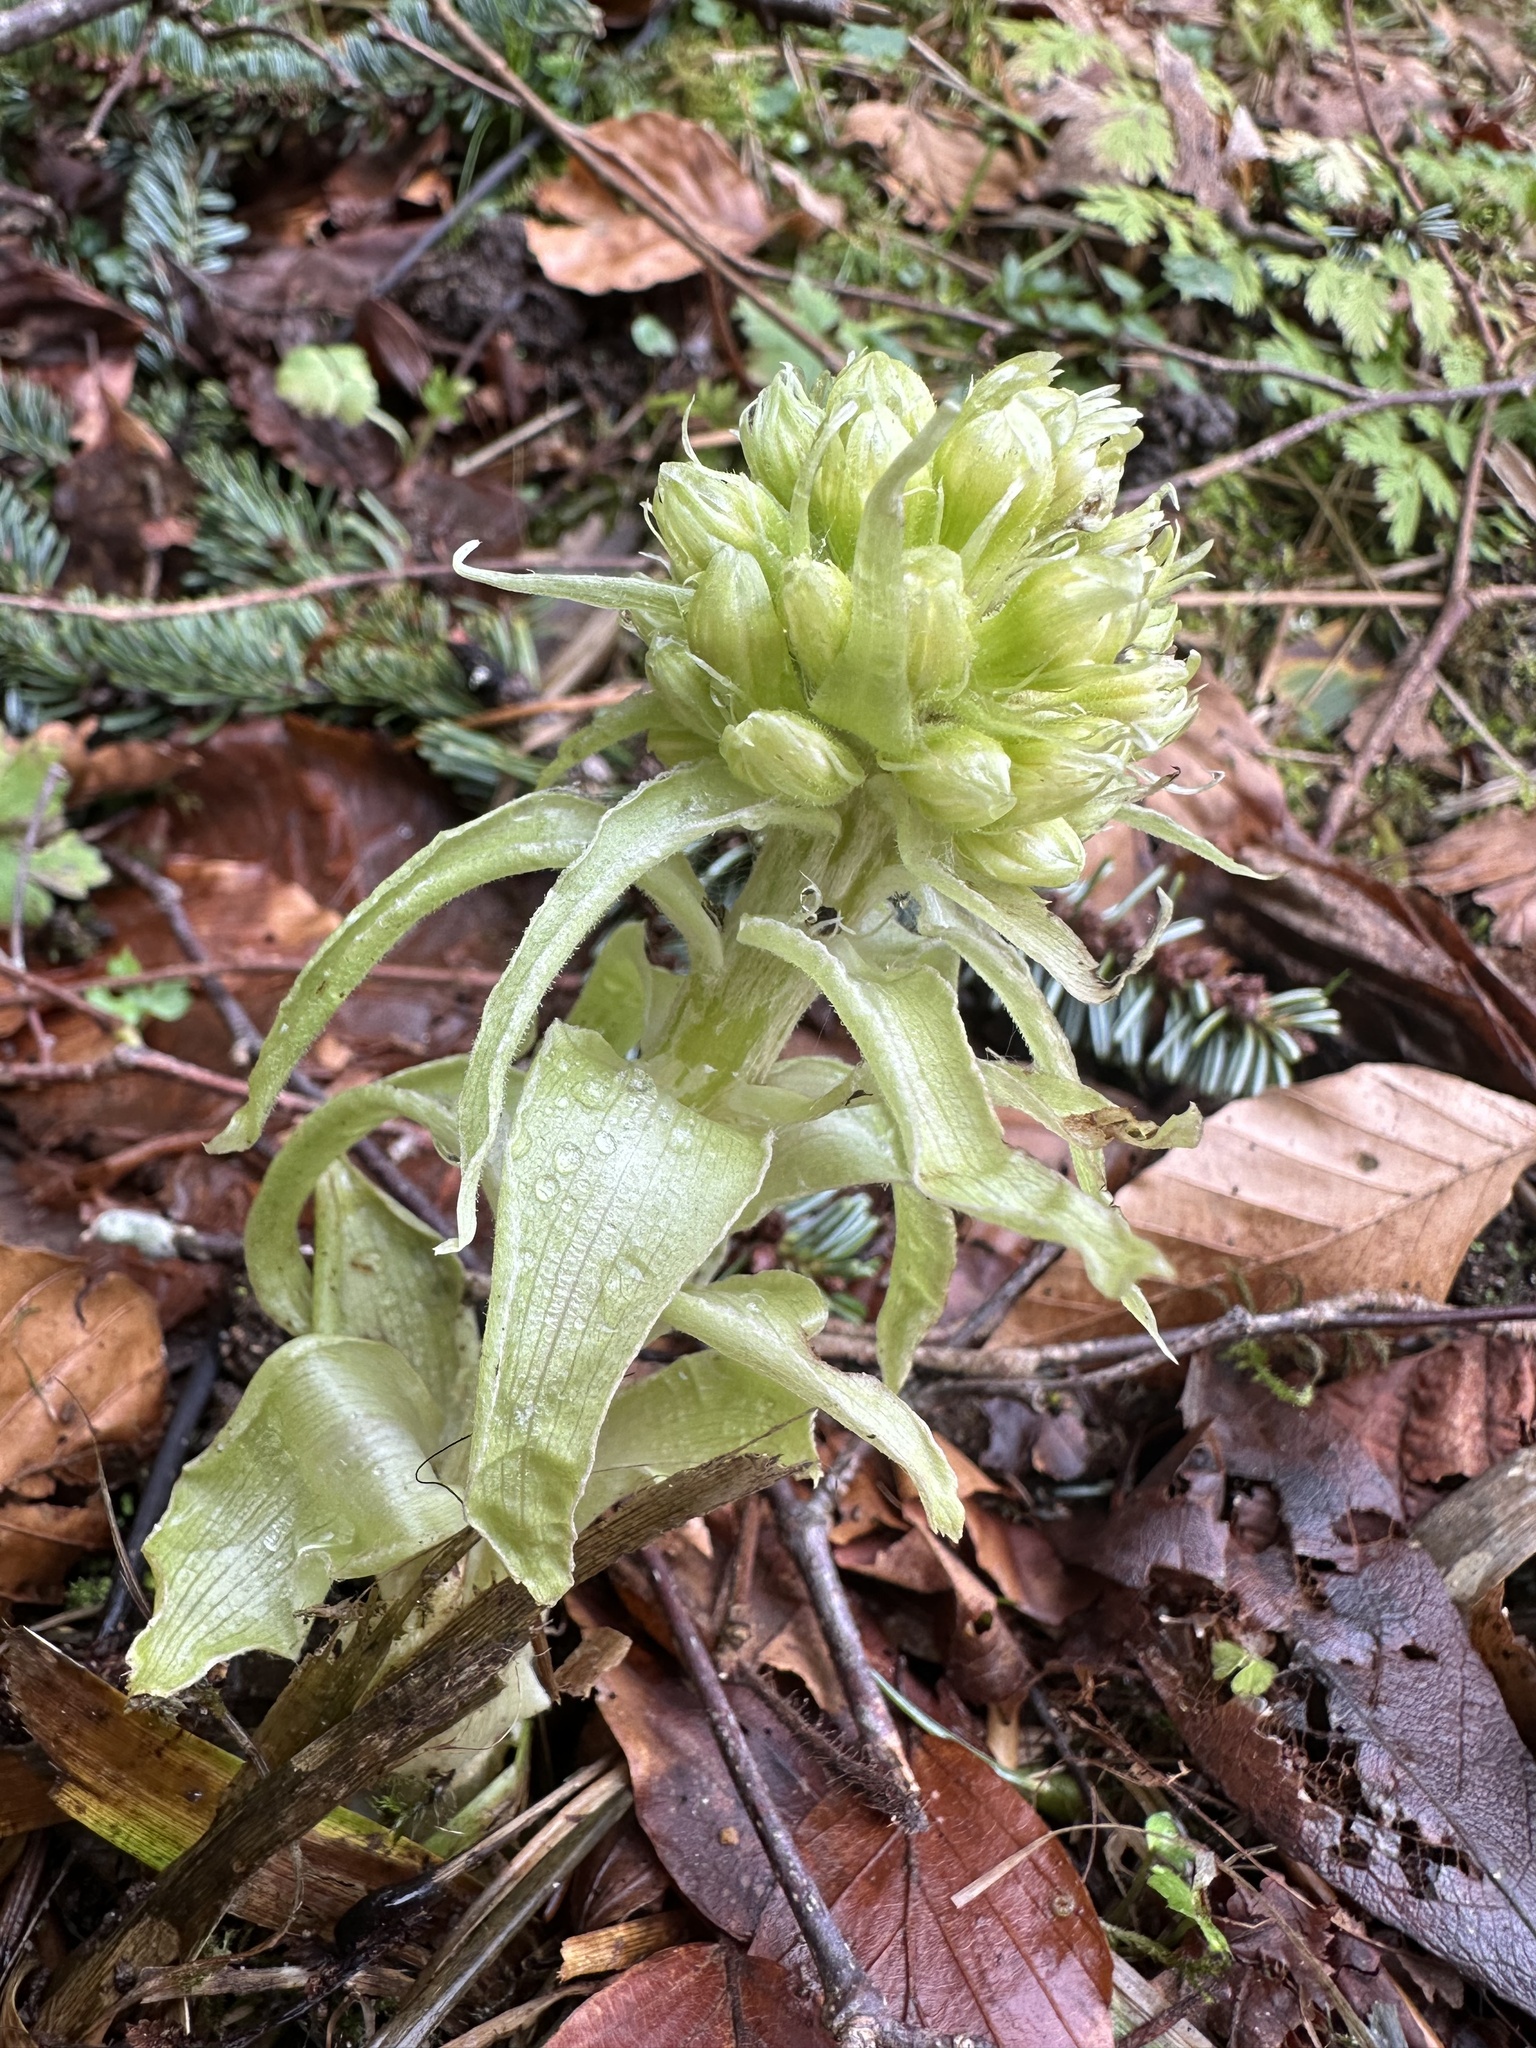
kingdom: Plantae
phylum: Tracheophyta
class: Magnoliopsida
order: Asterales
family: Asteraceae
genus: Petasites
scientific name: Petasites albus
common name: White butterbur
